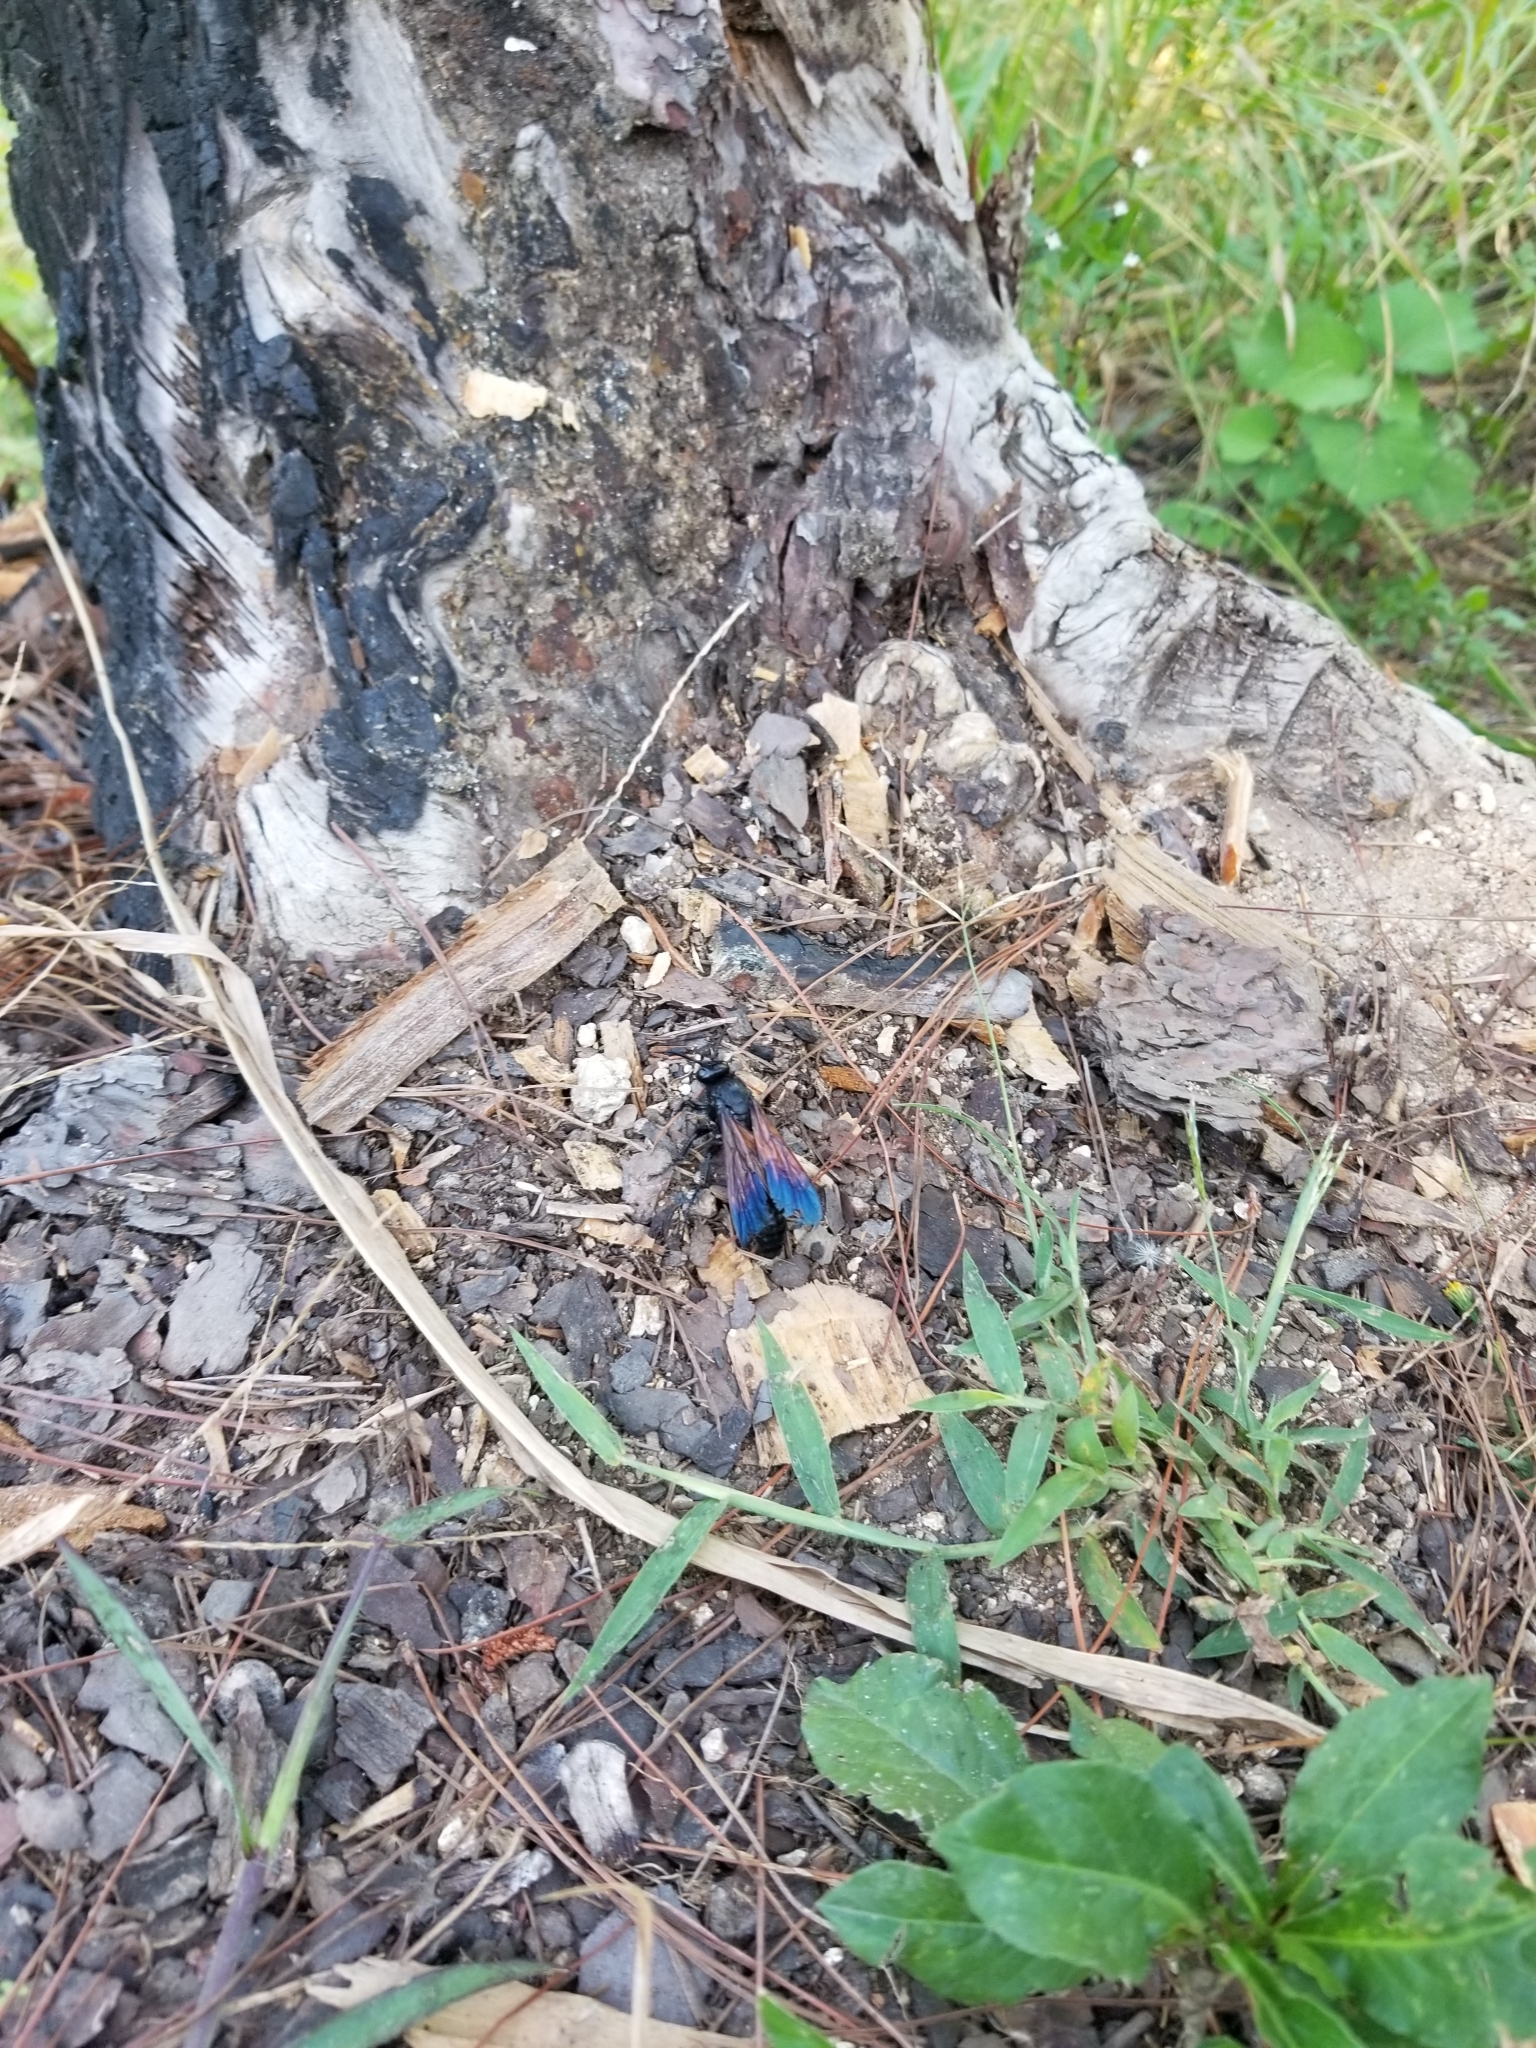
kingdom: Animalia
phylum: Arthropoda
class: Insecta
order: Hymenoptera
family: Scoliidae
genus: Campsomeris
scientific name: Campsomeris
